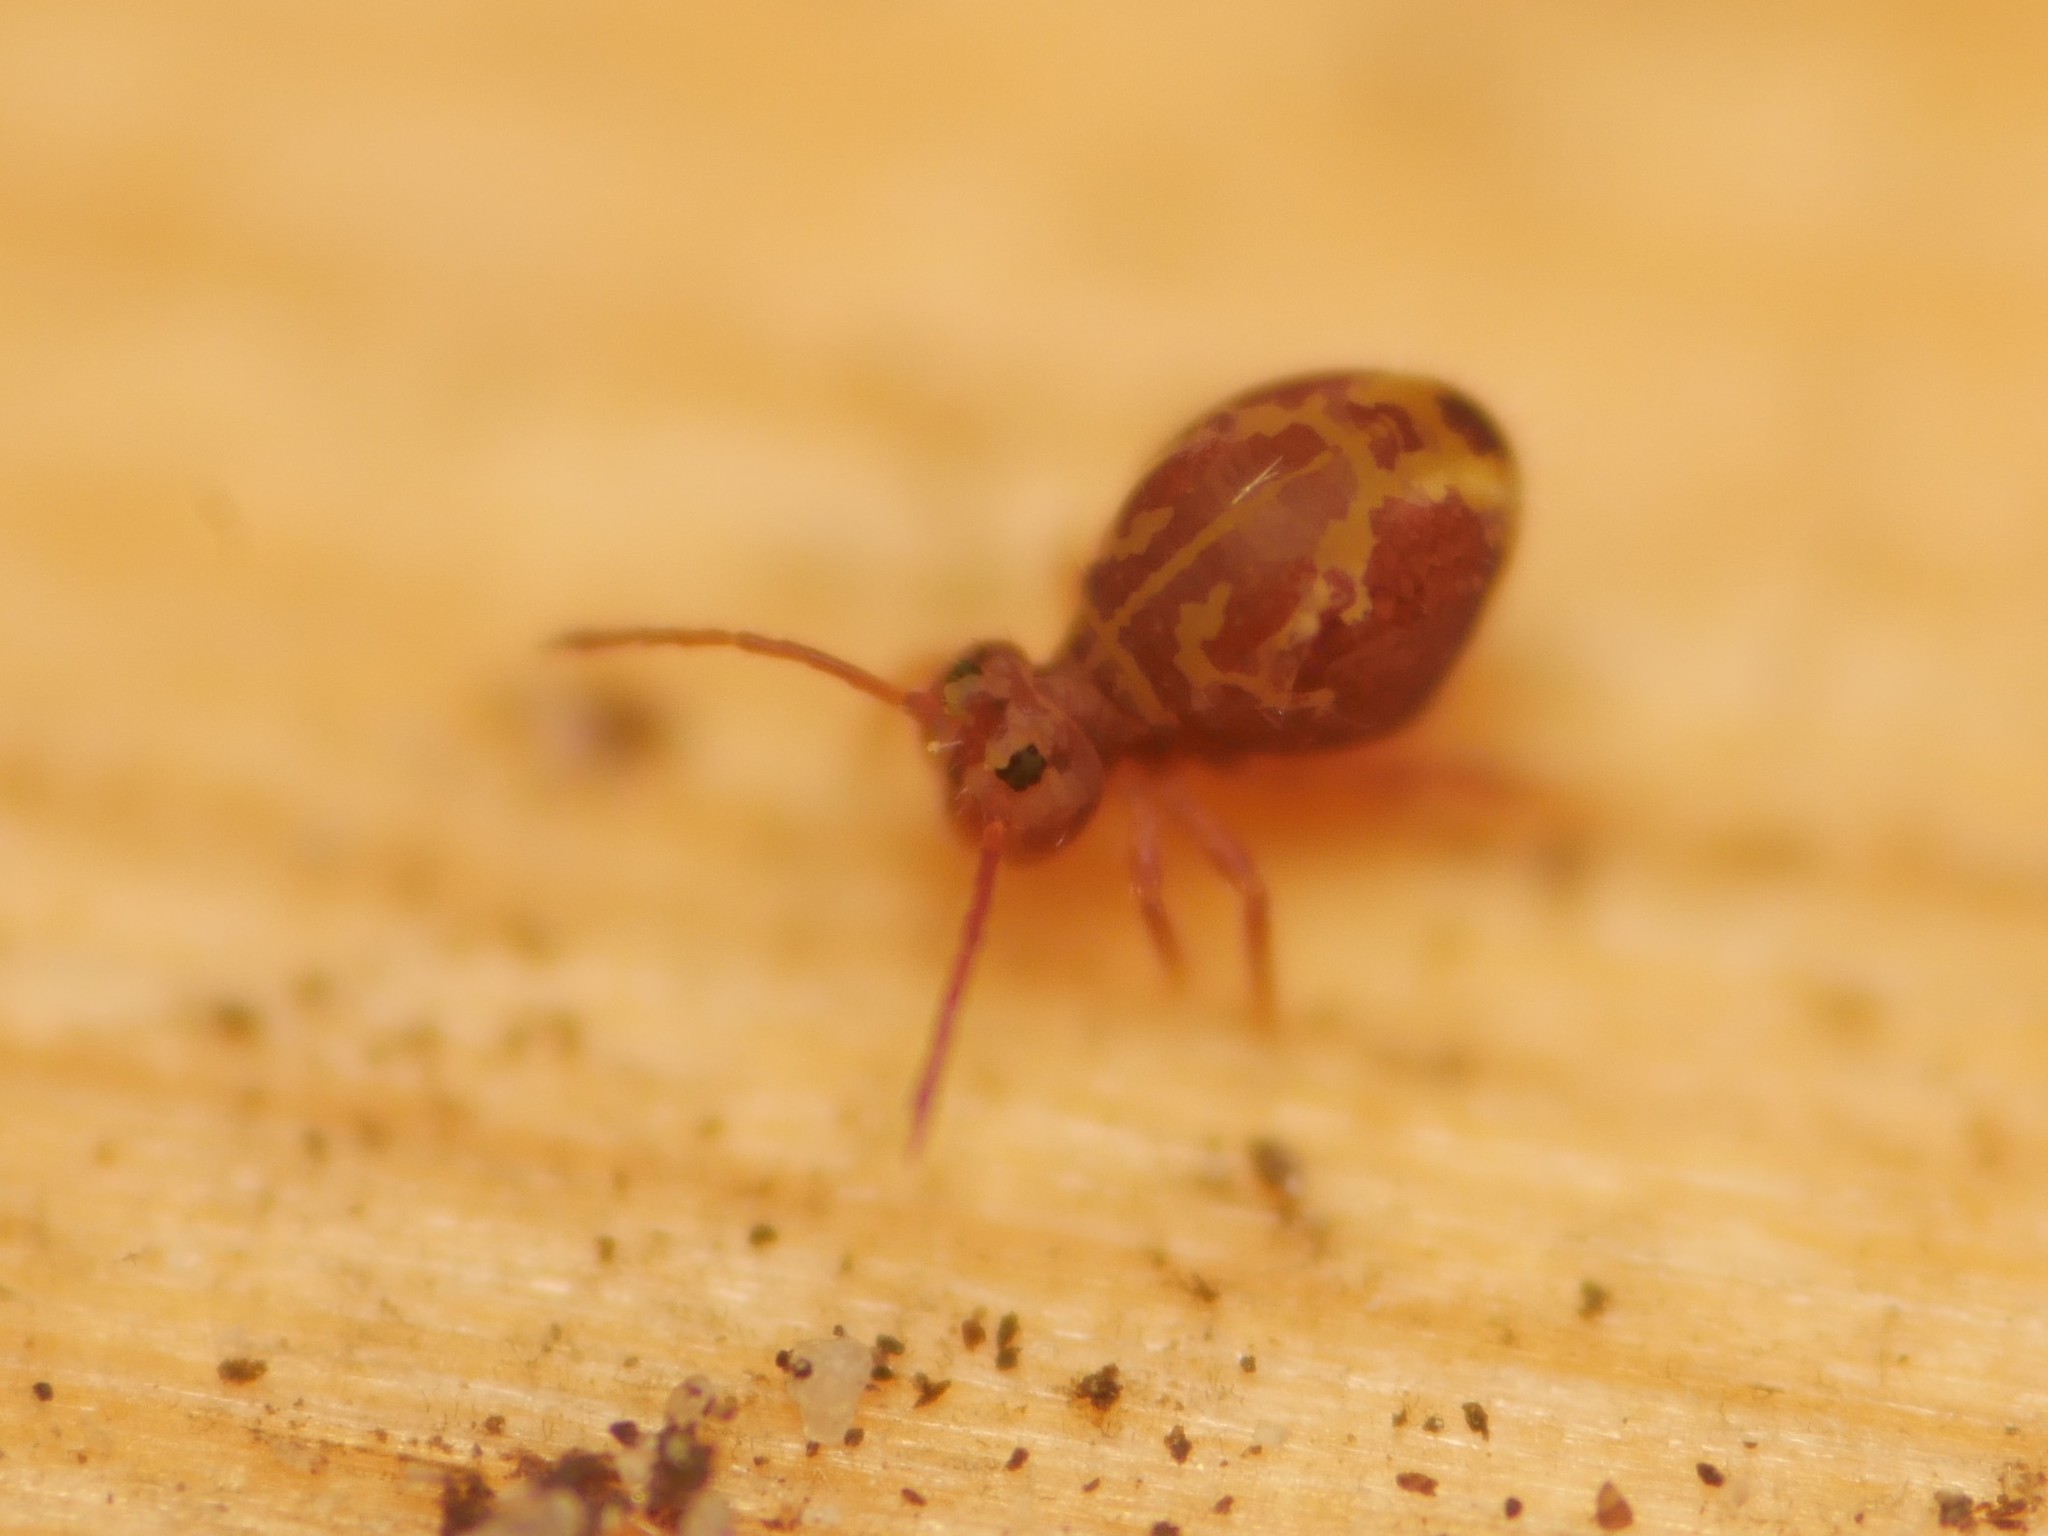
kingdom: Animalia
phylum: Arthropoda
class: Collembola
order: Symphypleona
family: Dicyrtomidae
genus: Dicyrtomina
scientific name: Dicyrtomina ornata
